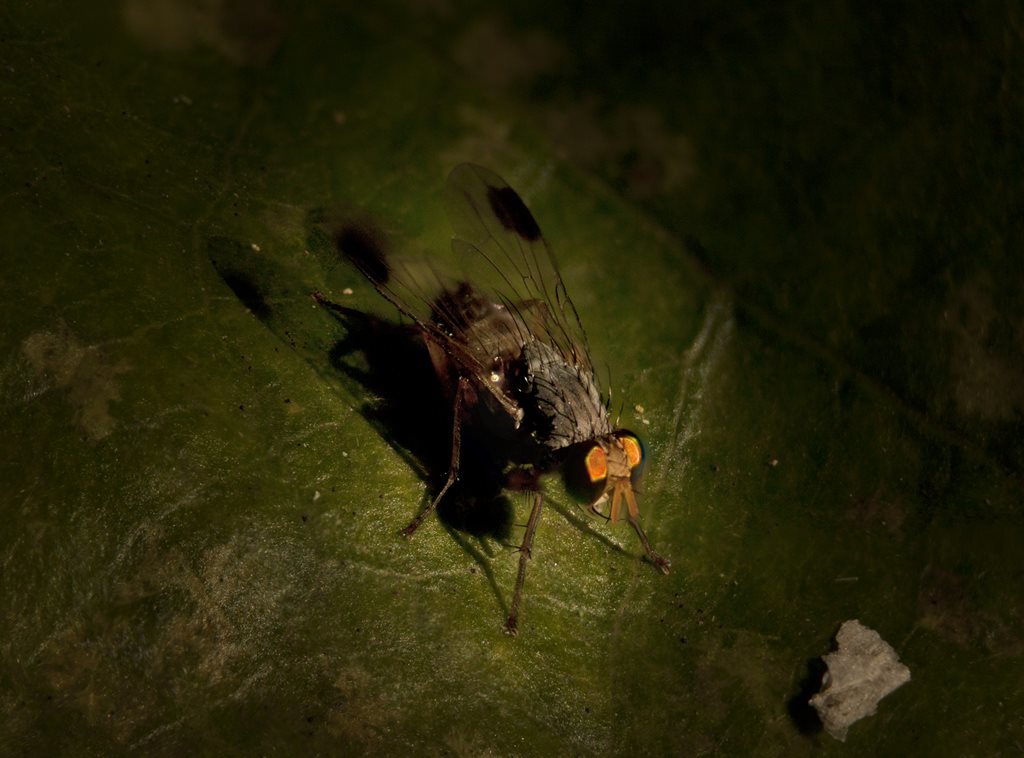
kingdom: Animalia
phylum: Arthropoda
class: Insecta
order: Diptera
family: Muscidae
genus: Pygophora
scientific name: Pygophora apicalis
